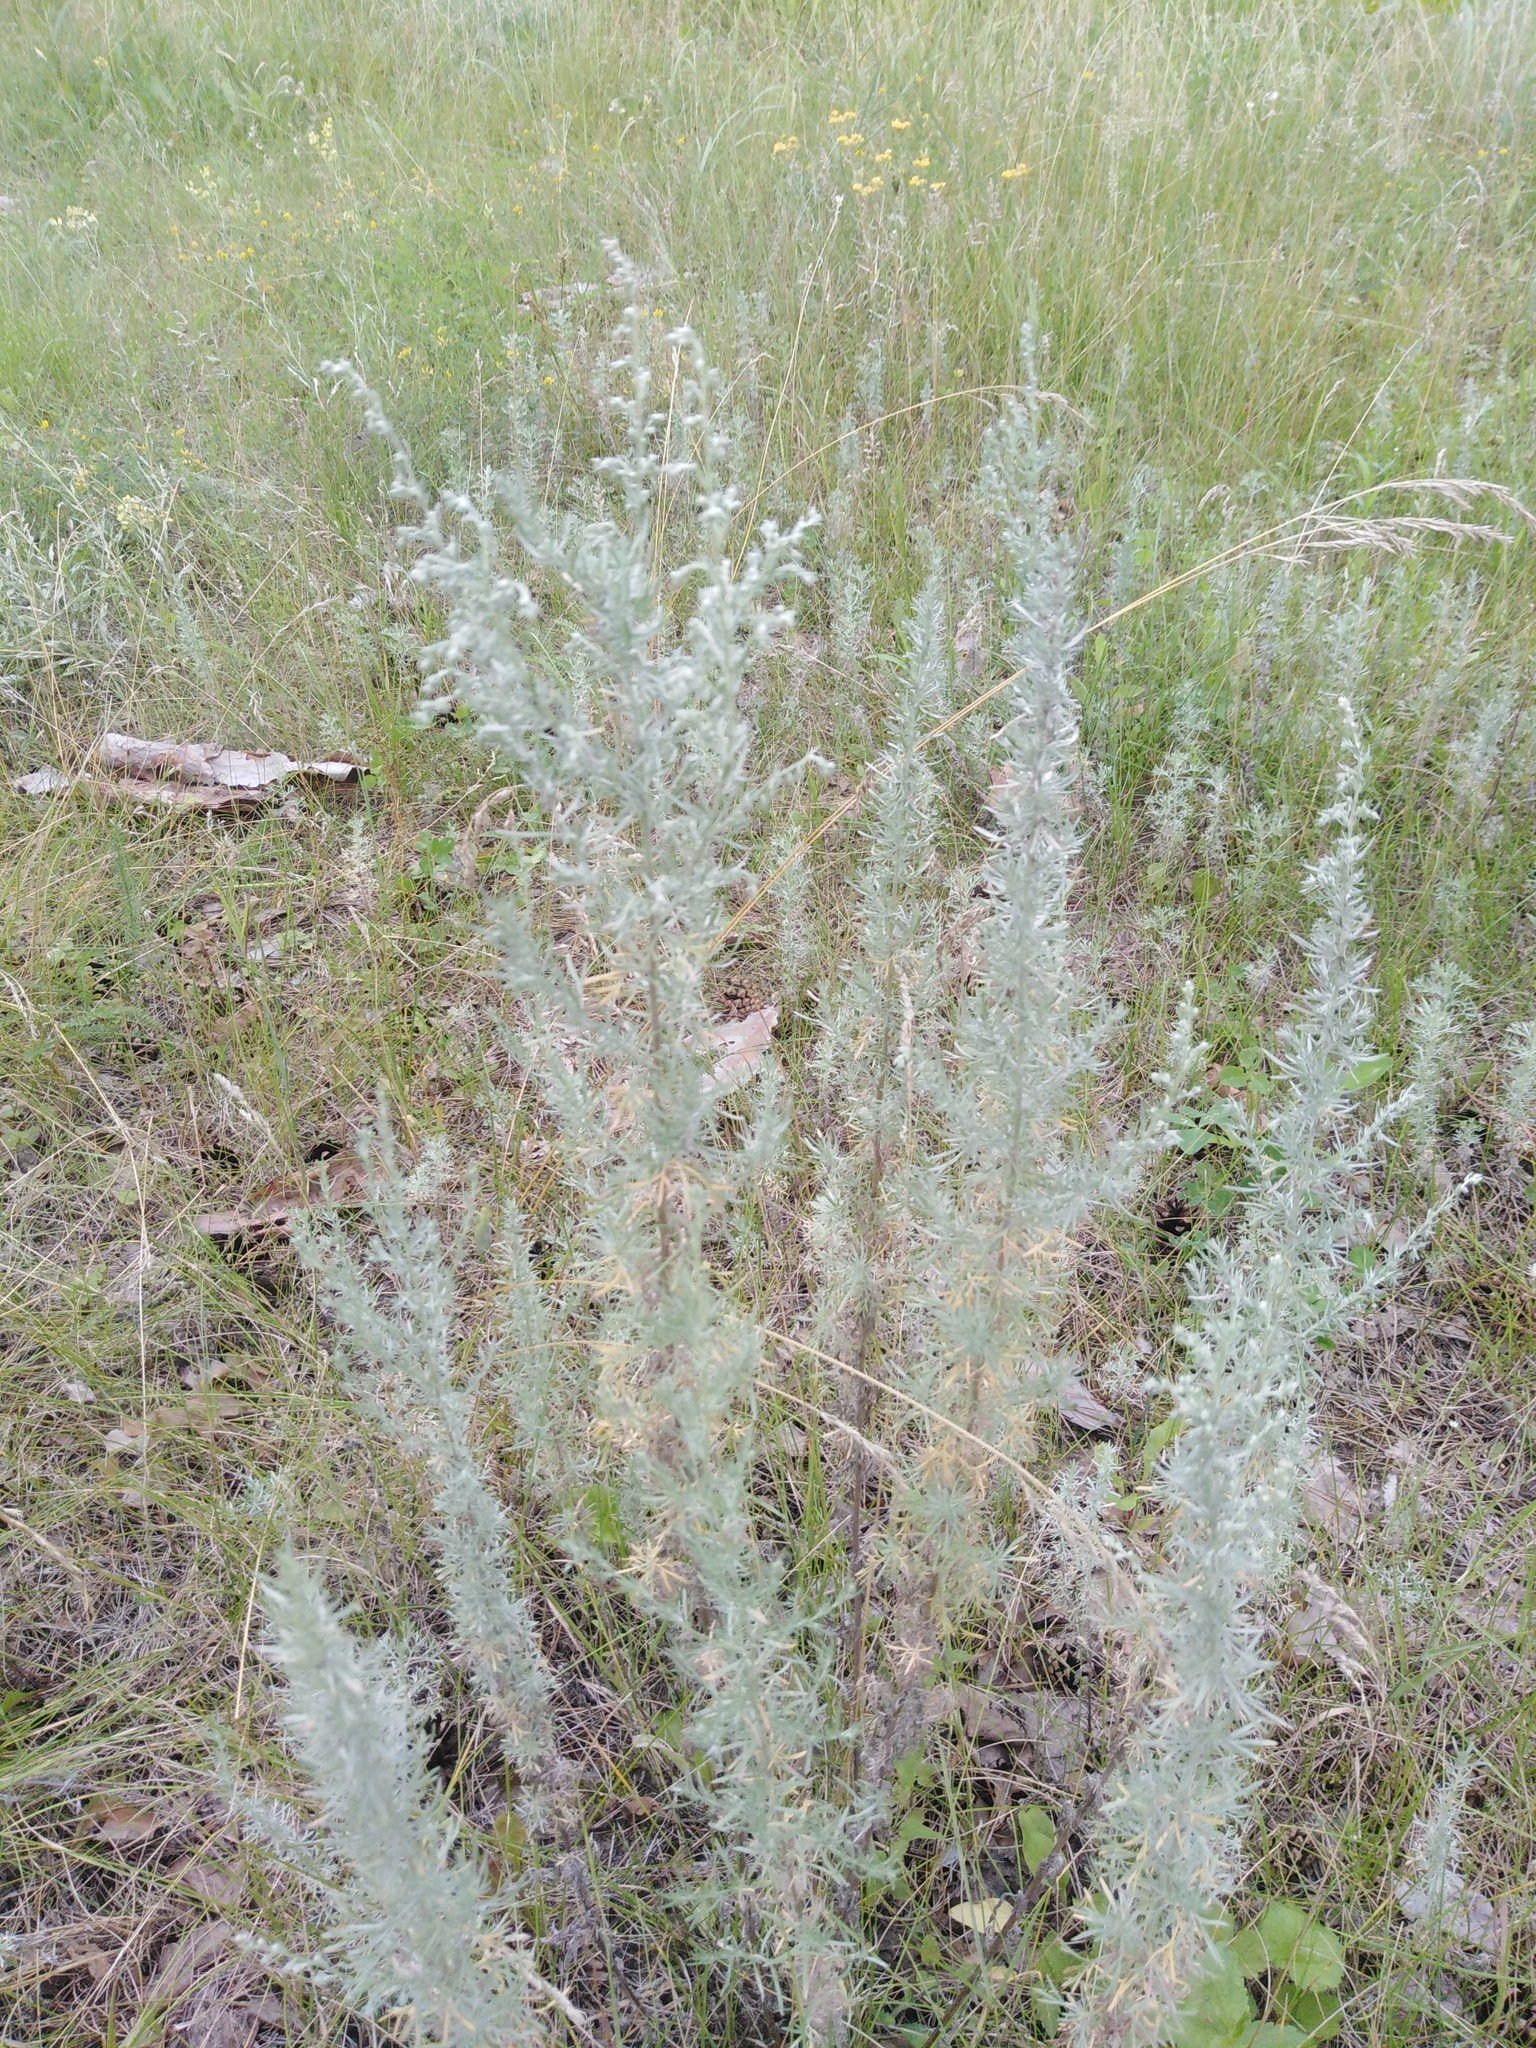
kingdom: Plantae
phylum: Tracheophyta
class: Magnoliopsida
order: Asterales
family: Asteraceae
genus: Artemisia
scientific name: Artemisia austriaca
